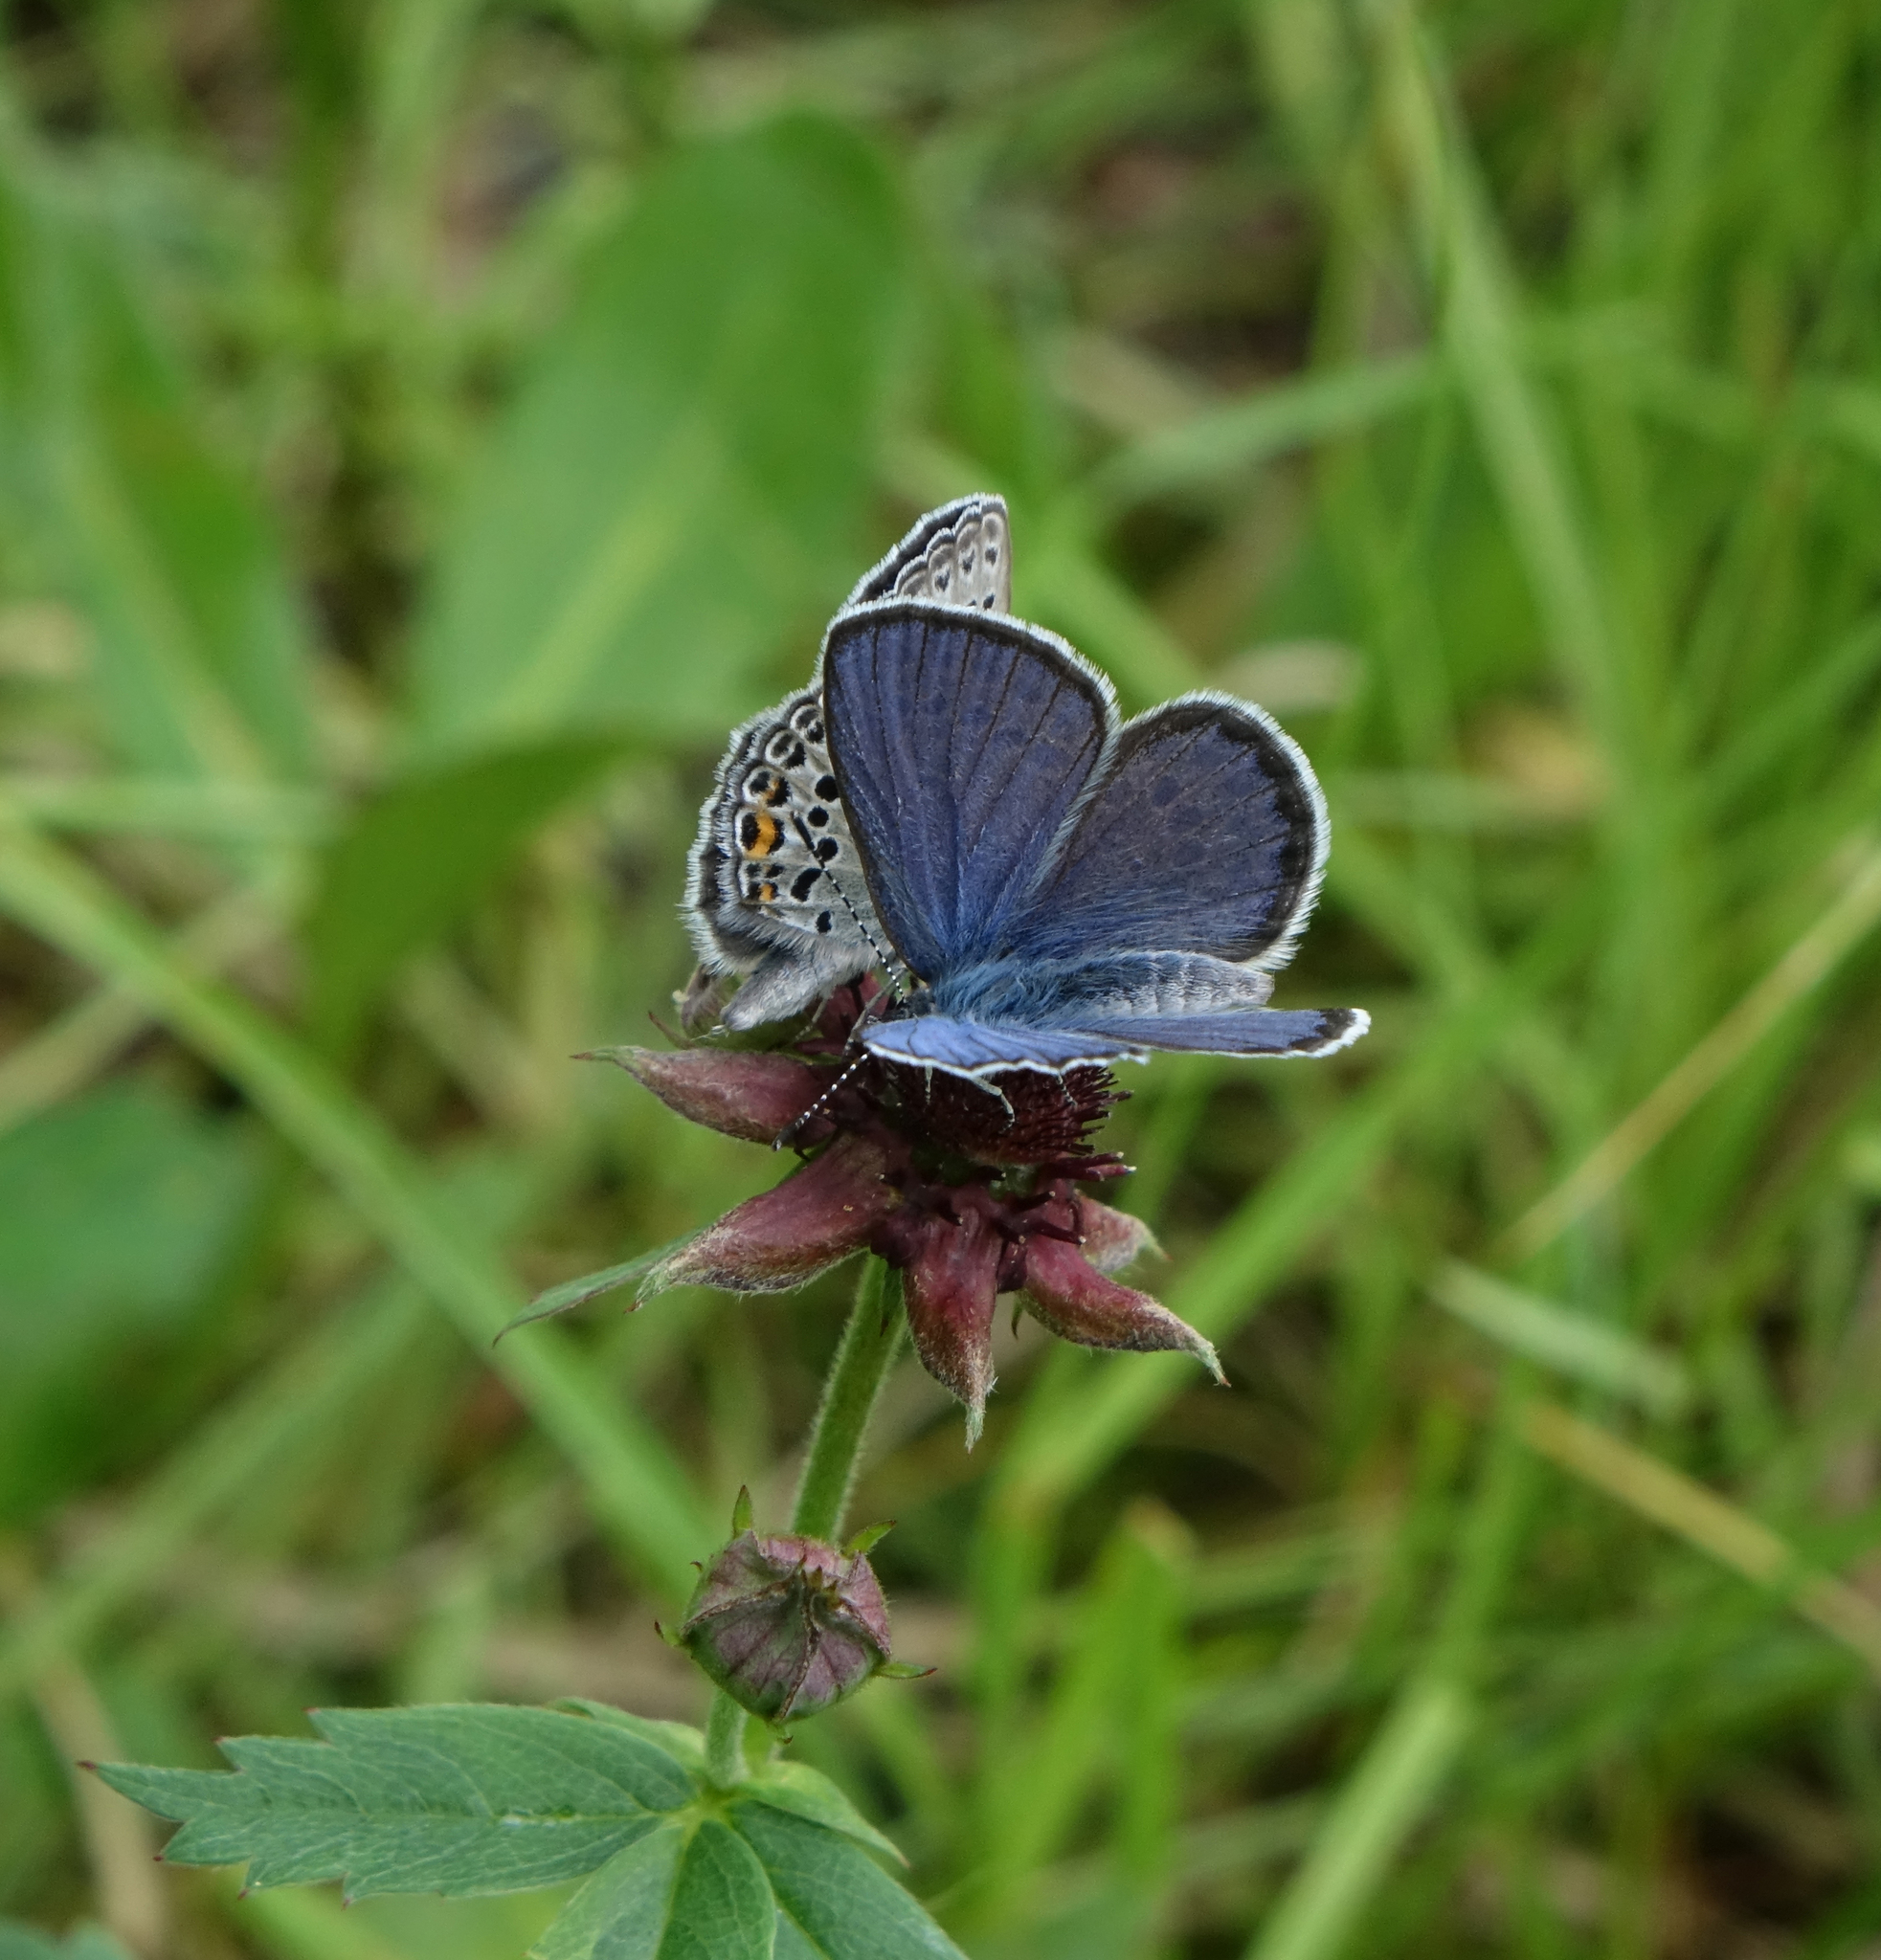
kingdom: Animalia
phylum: Arthropoda
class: Insecta
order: Lepidoptera
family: Lycaenidae
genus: Vacciniina
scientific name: Vacciniina optilete
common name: Cranberry blue
